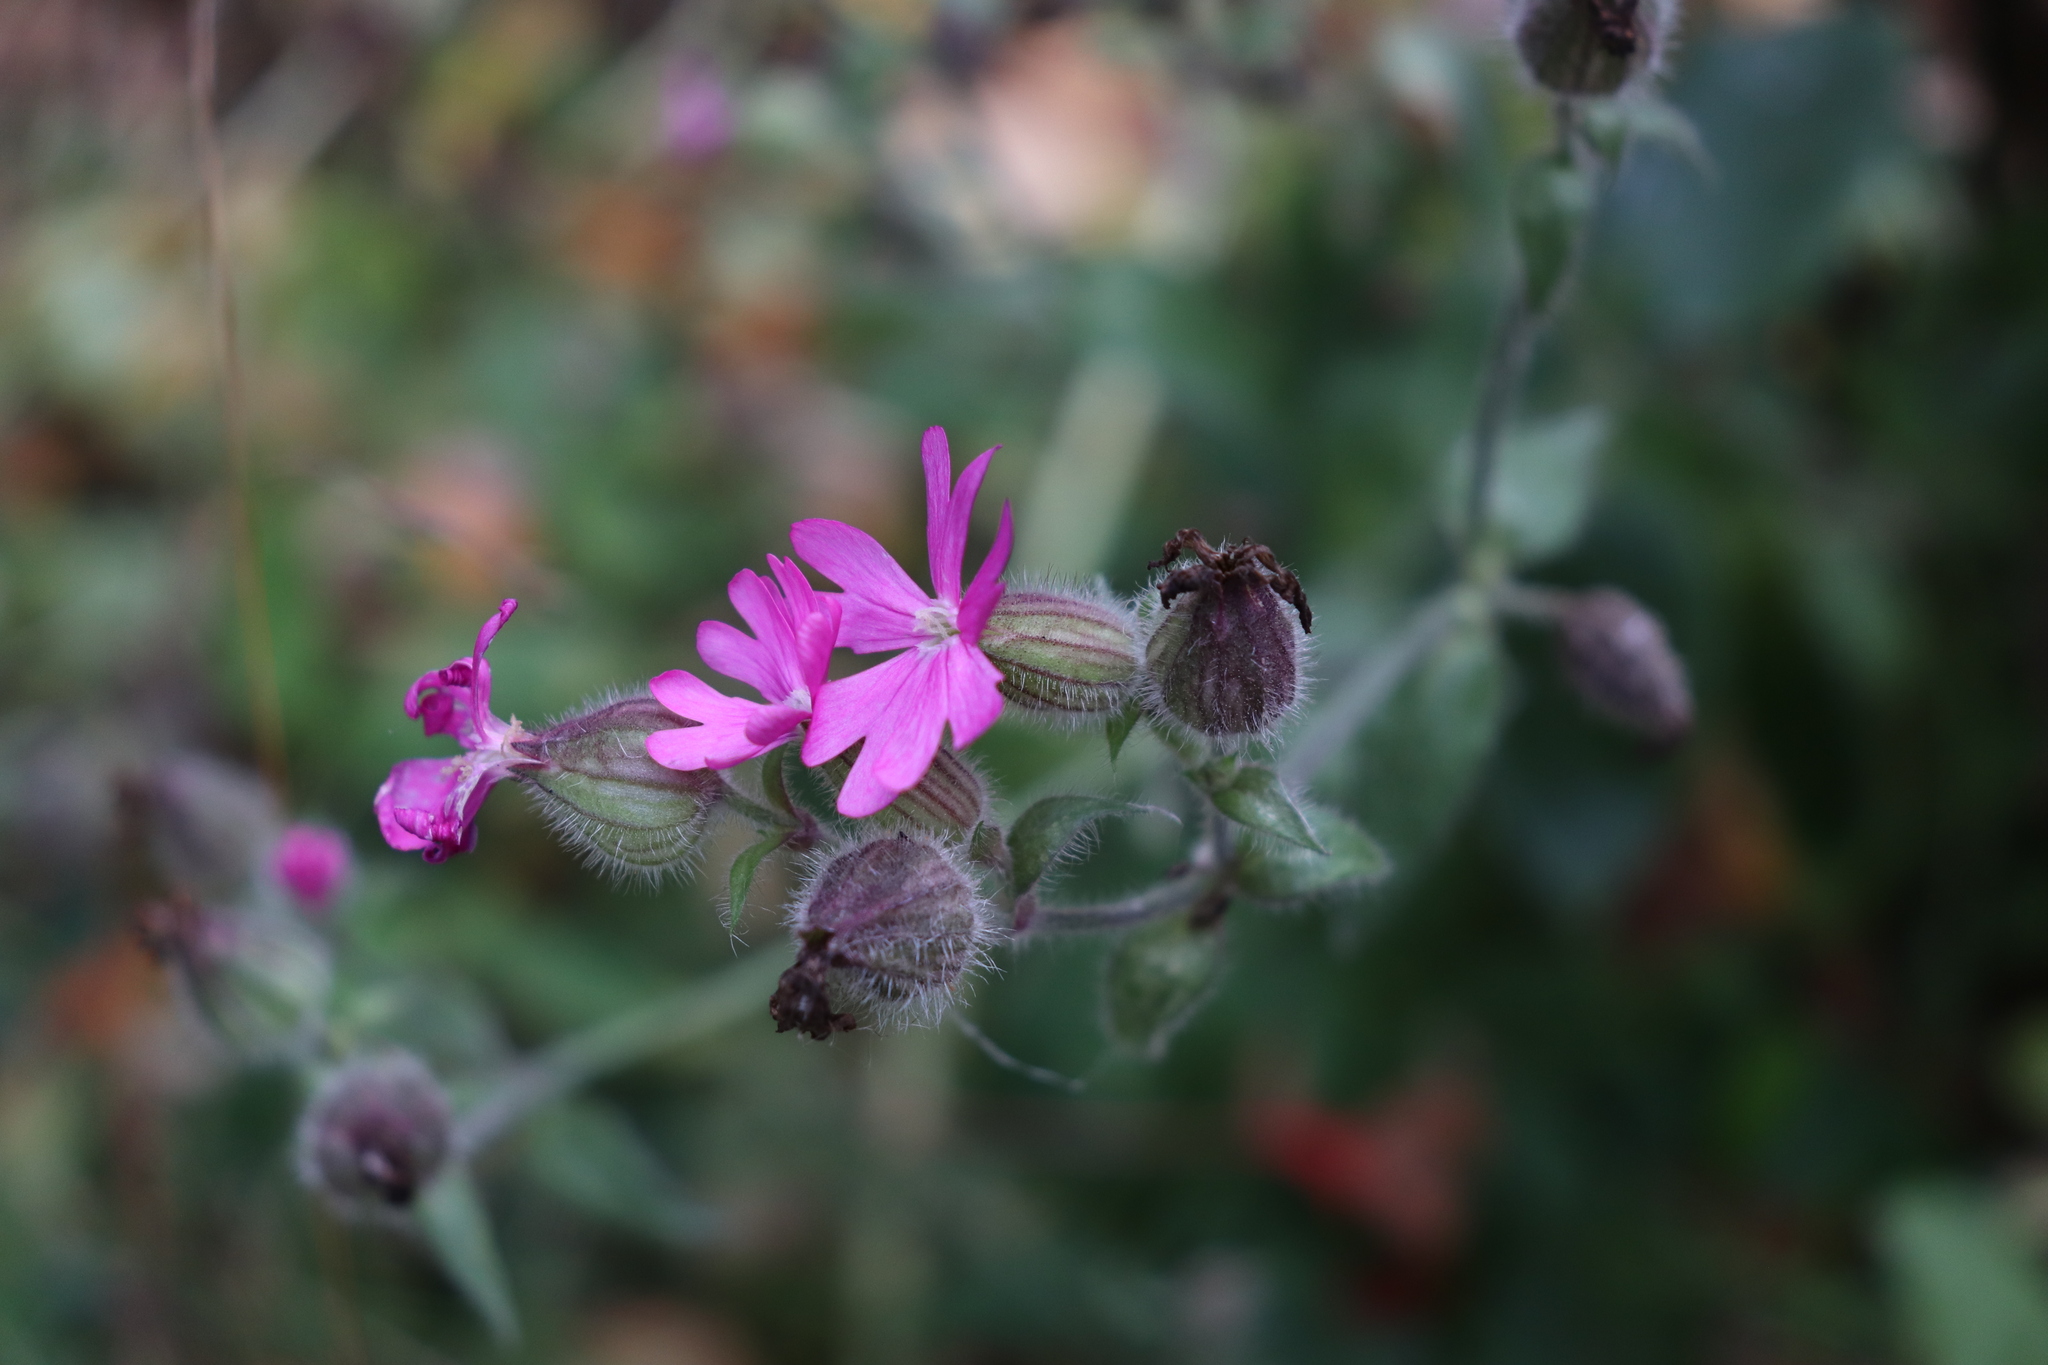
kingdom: Plantae
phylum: Tracheophyta
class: Magnoliopsida
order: Caryophyllales
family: Caryophyllaceae
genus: Silene
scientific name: Silene dioica
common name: Red campion
